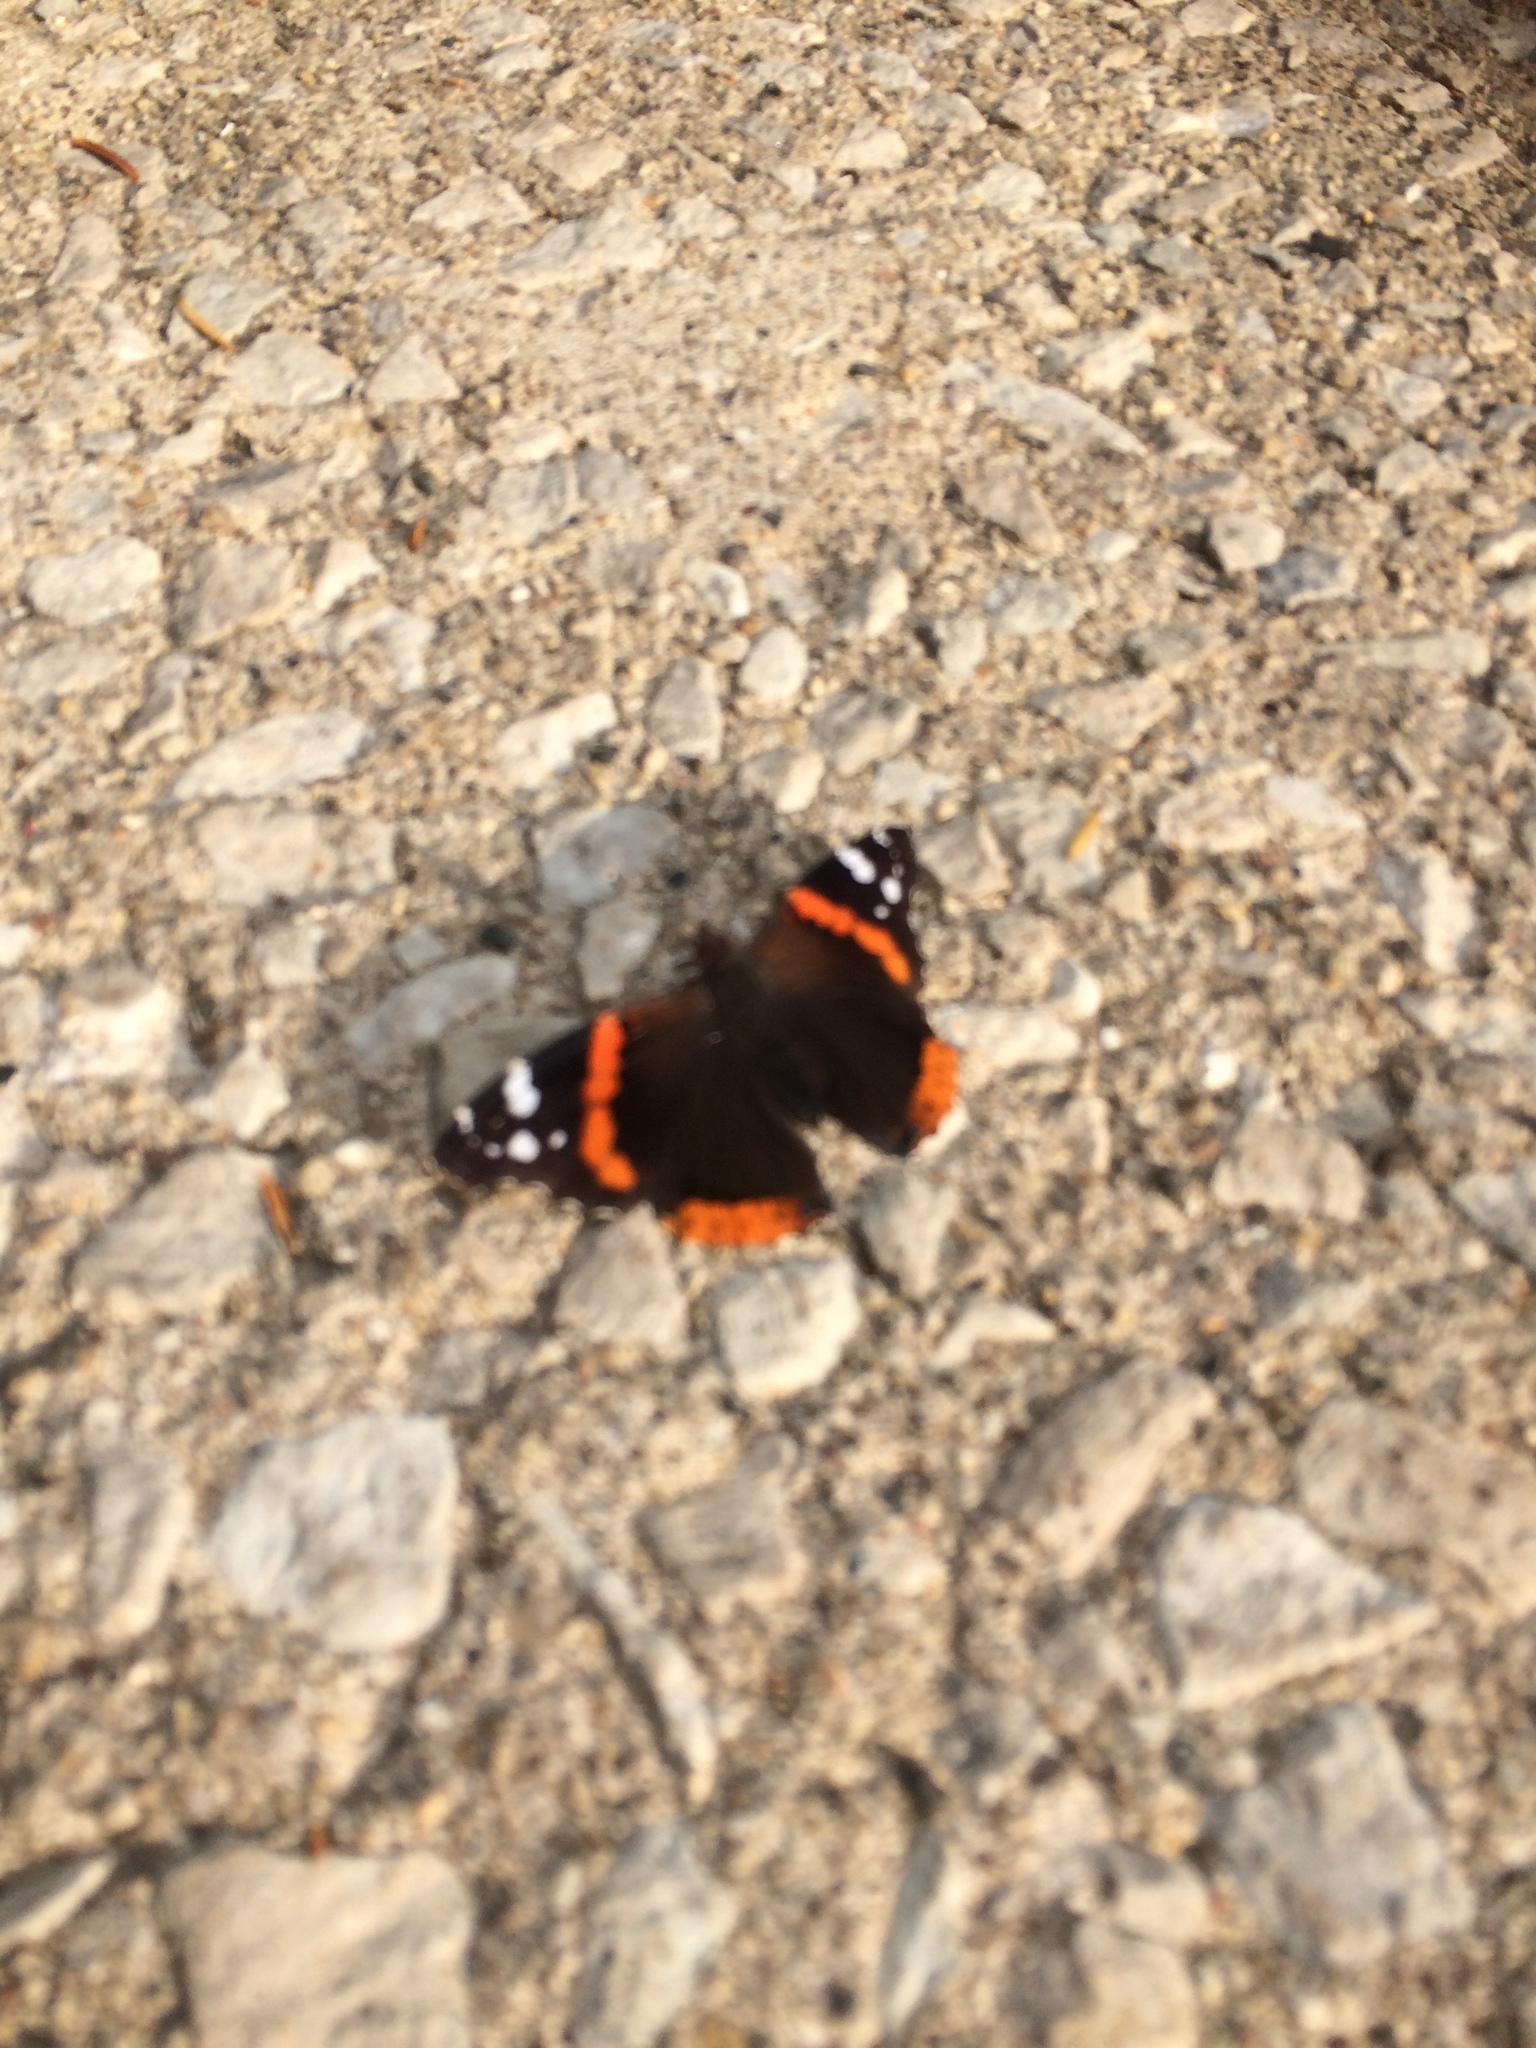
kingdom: Animalia
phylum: Arthropoda
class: Insecta
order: Lepidoptera
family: Nymphalidae
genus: Vanessa
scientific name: Vanessa atalanta
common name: Red admiral
